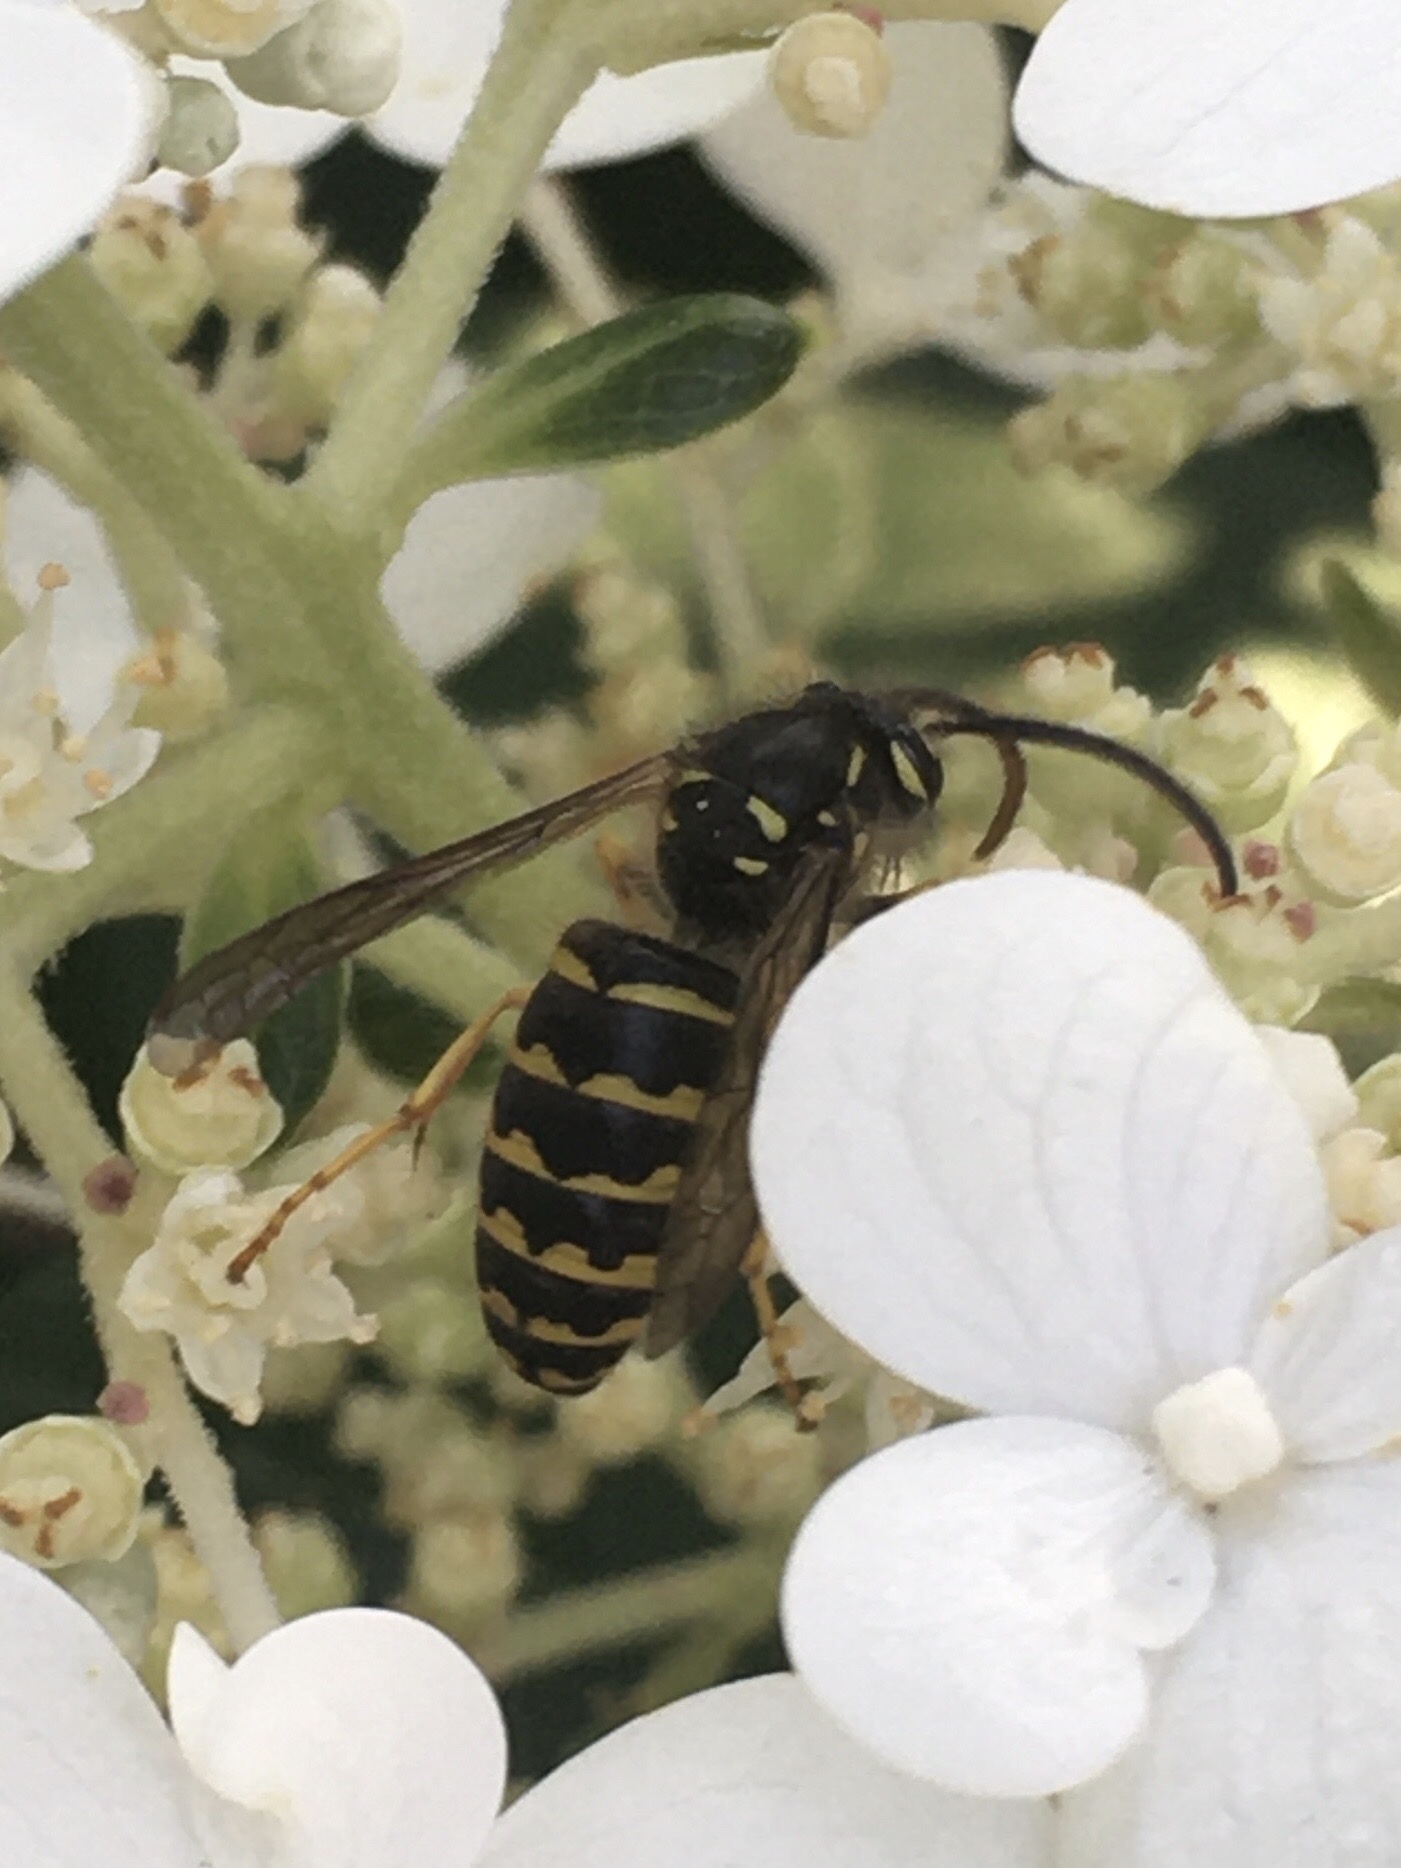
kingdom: Animalia
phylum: Arthropoda
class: Insecta
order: Hymenoptera
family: Vespidae
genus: Dolichovespula
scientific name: Dolichovespula arenaria
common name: Aerial yellowjacket
